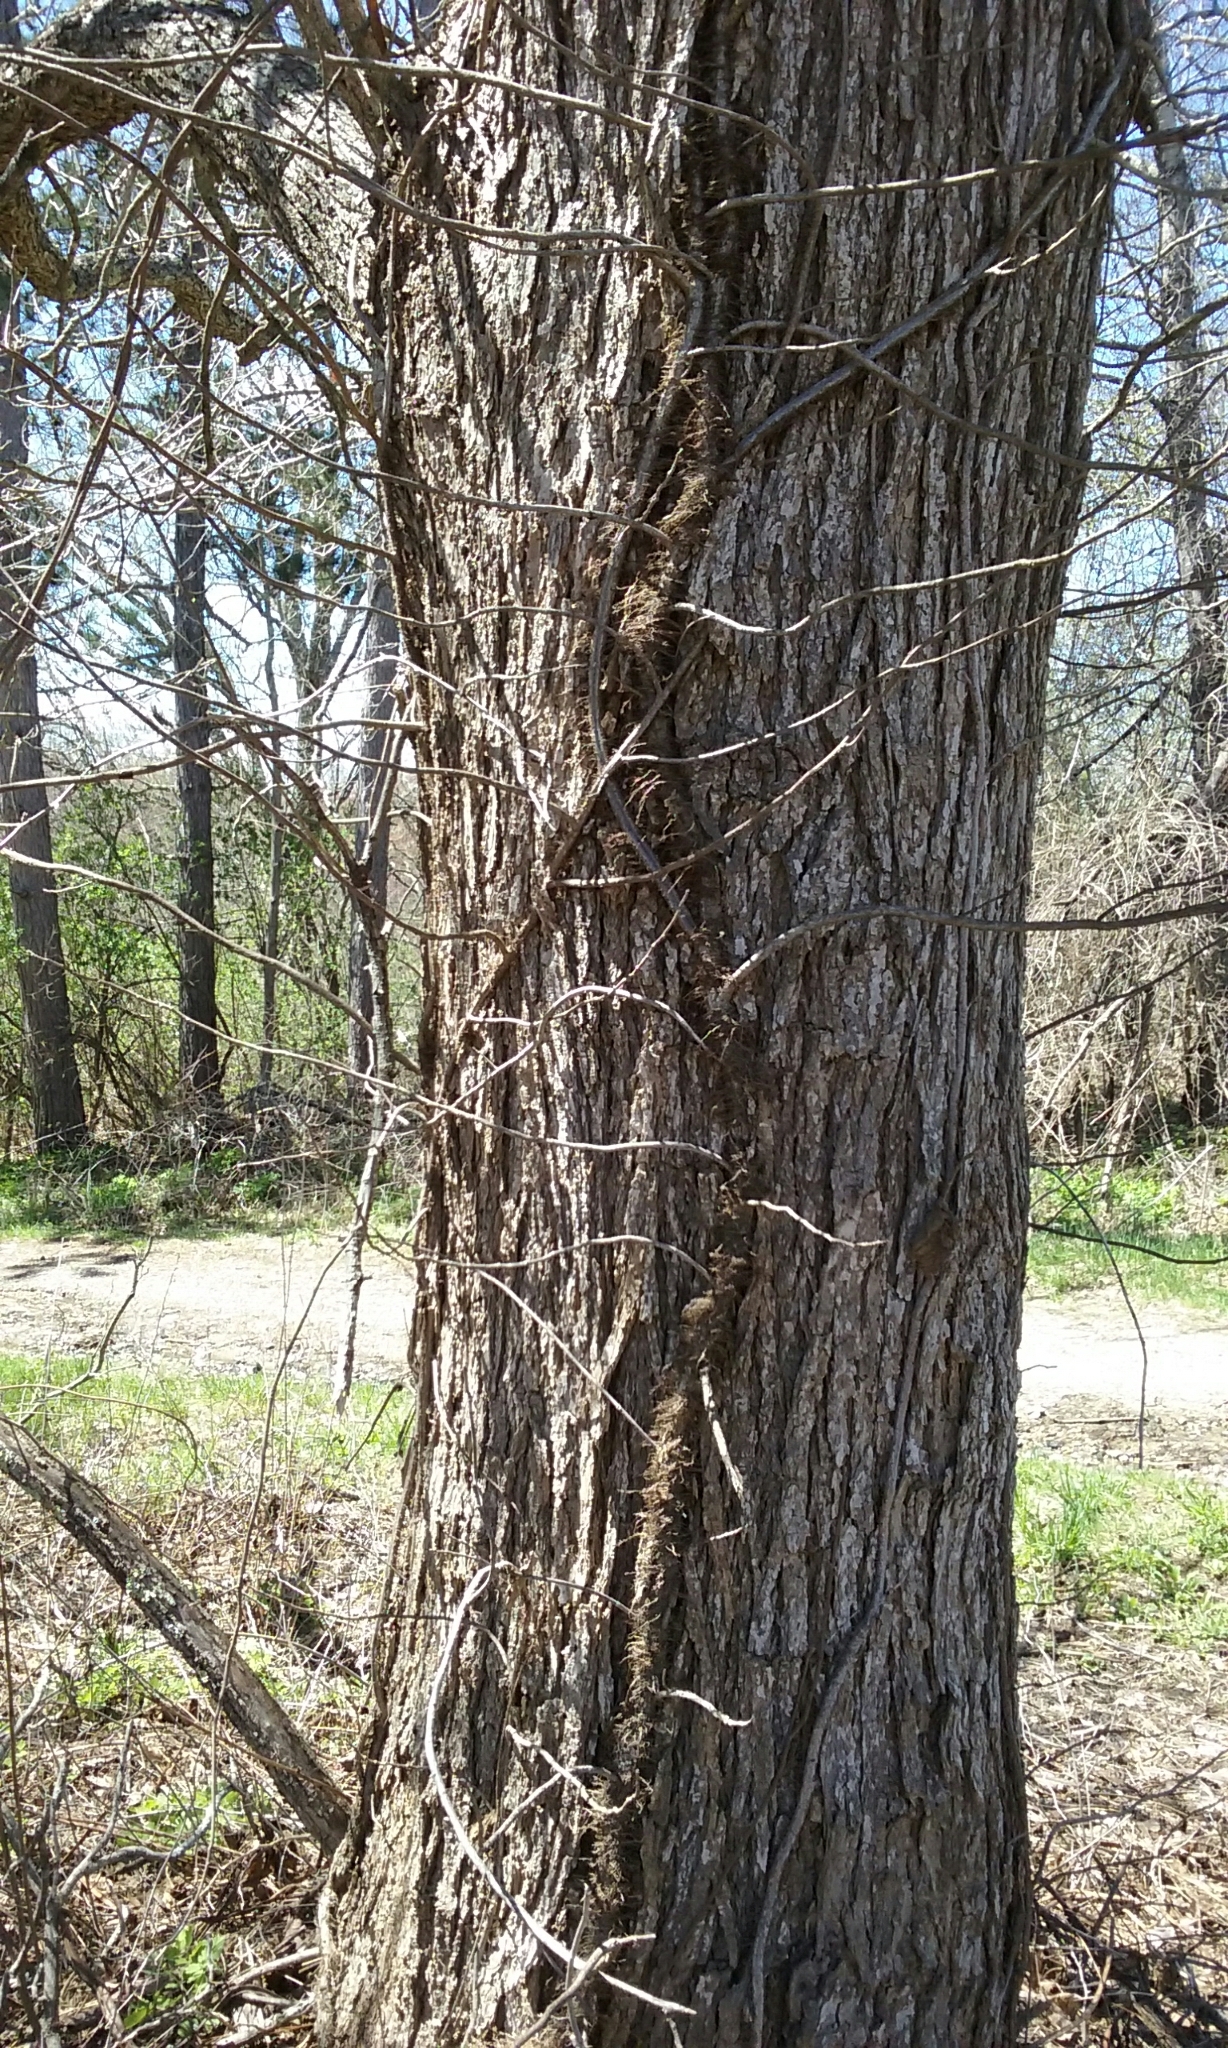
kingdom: Plantae
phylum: Tracheophyta
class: Magnoliopsida
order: Sapindales
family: Anacardiaceae
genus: Toxicodendron
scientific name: Toxicodendron radicans
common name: Poison ivy
